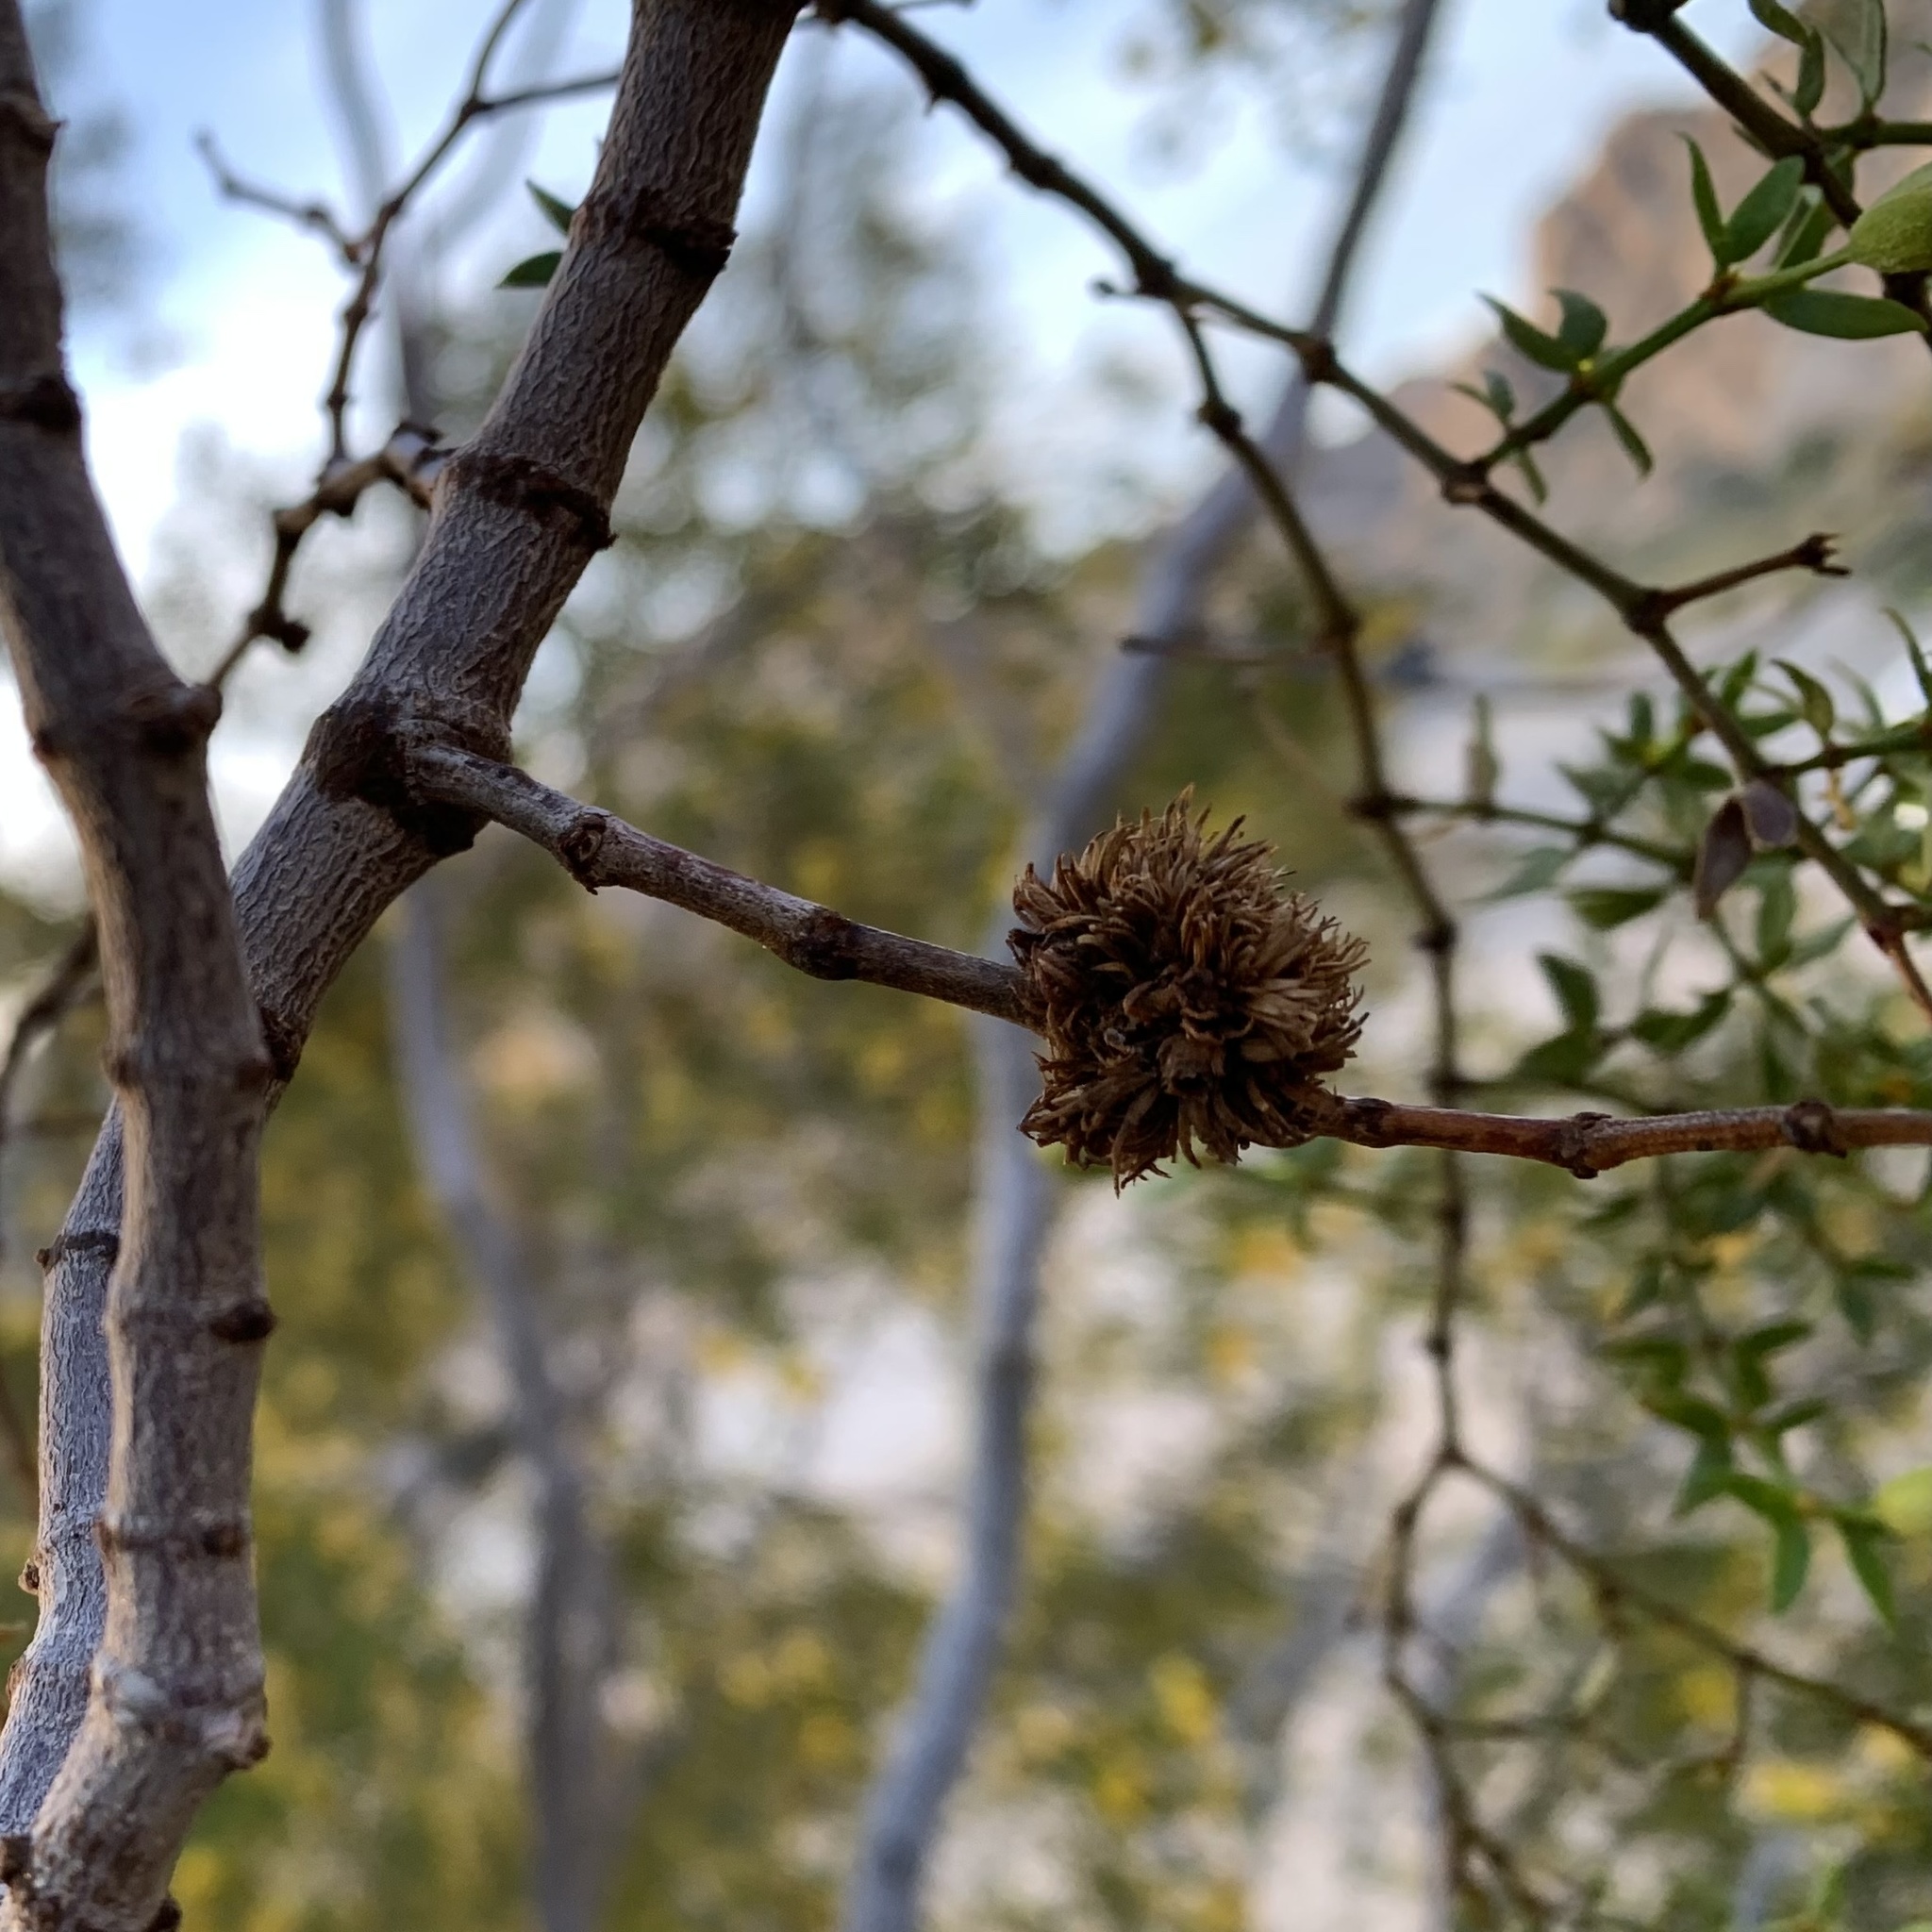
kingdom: Animalia
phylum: Arthropoda
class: Insecta
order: Diptera
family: Cecidomyiidae
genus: Asphondylia
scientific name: Asphondylia auripila
